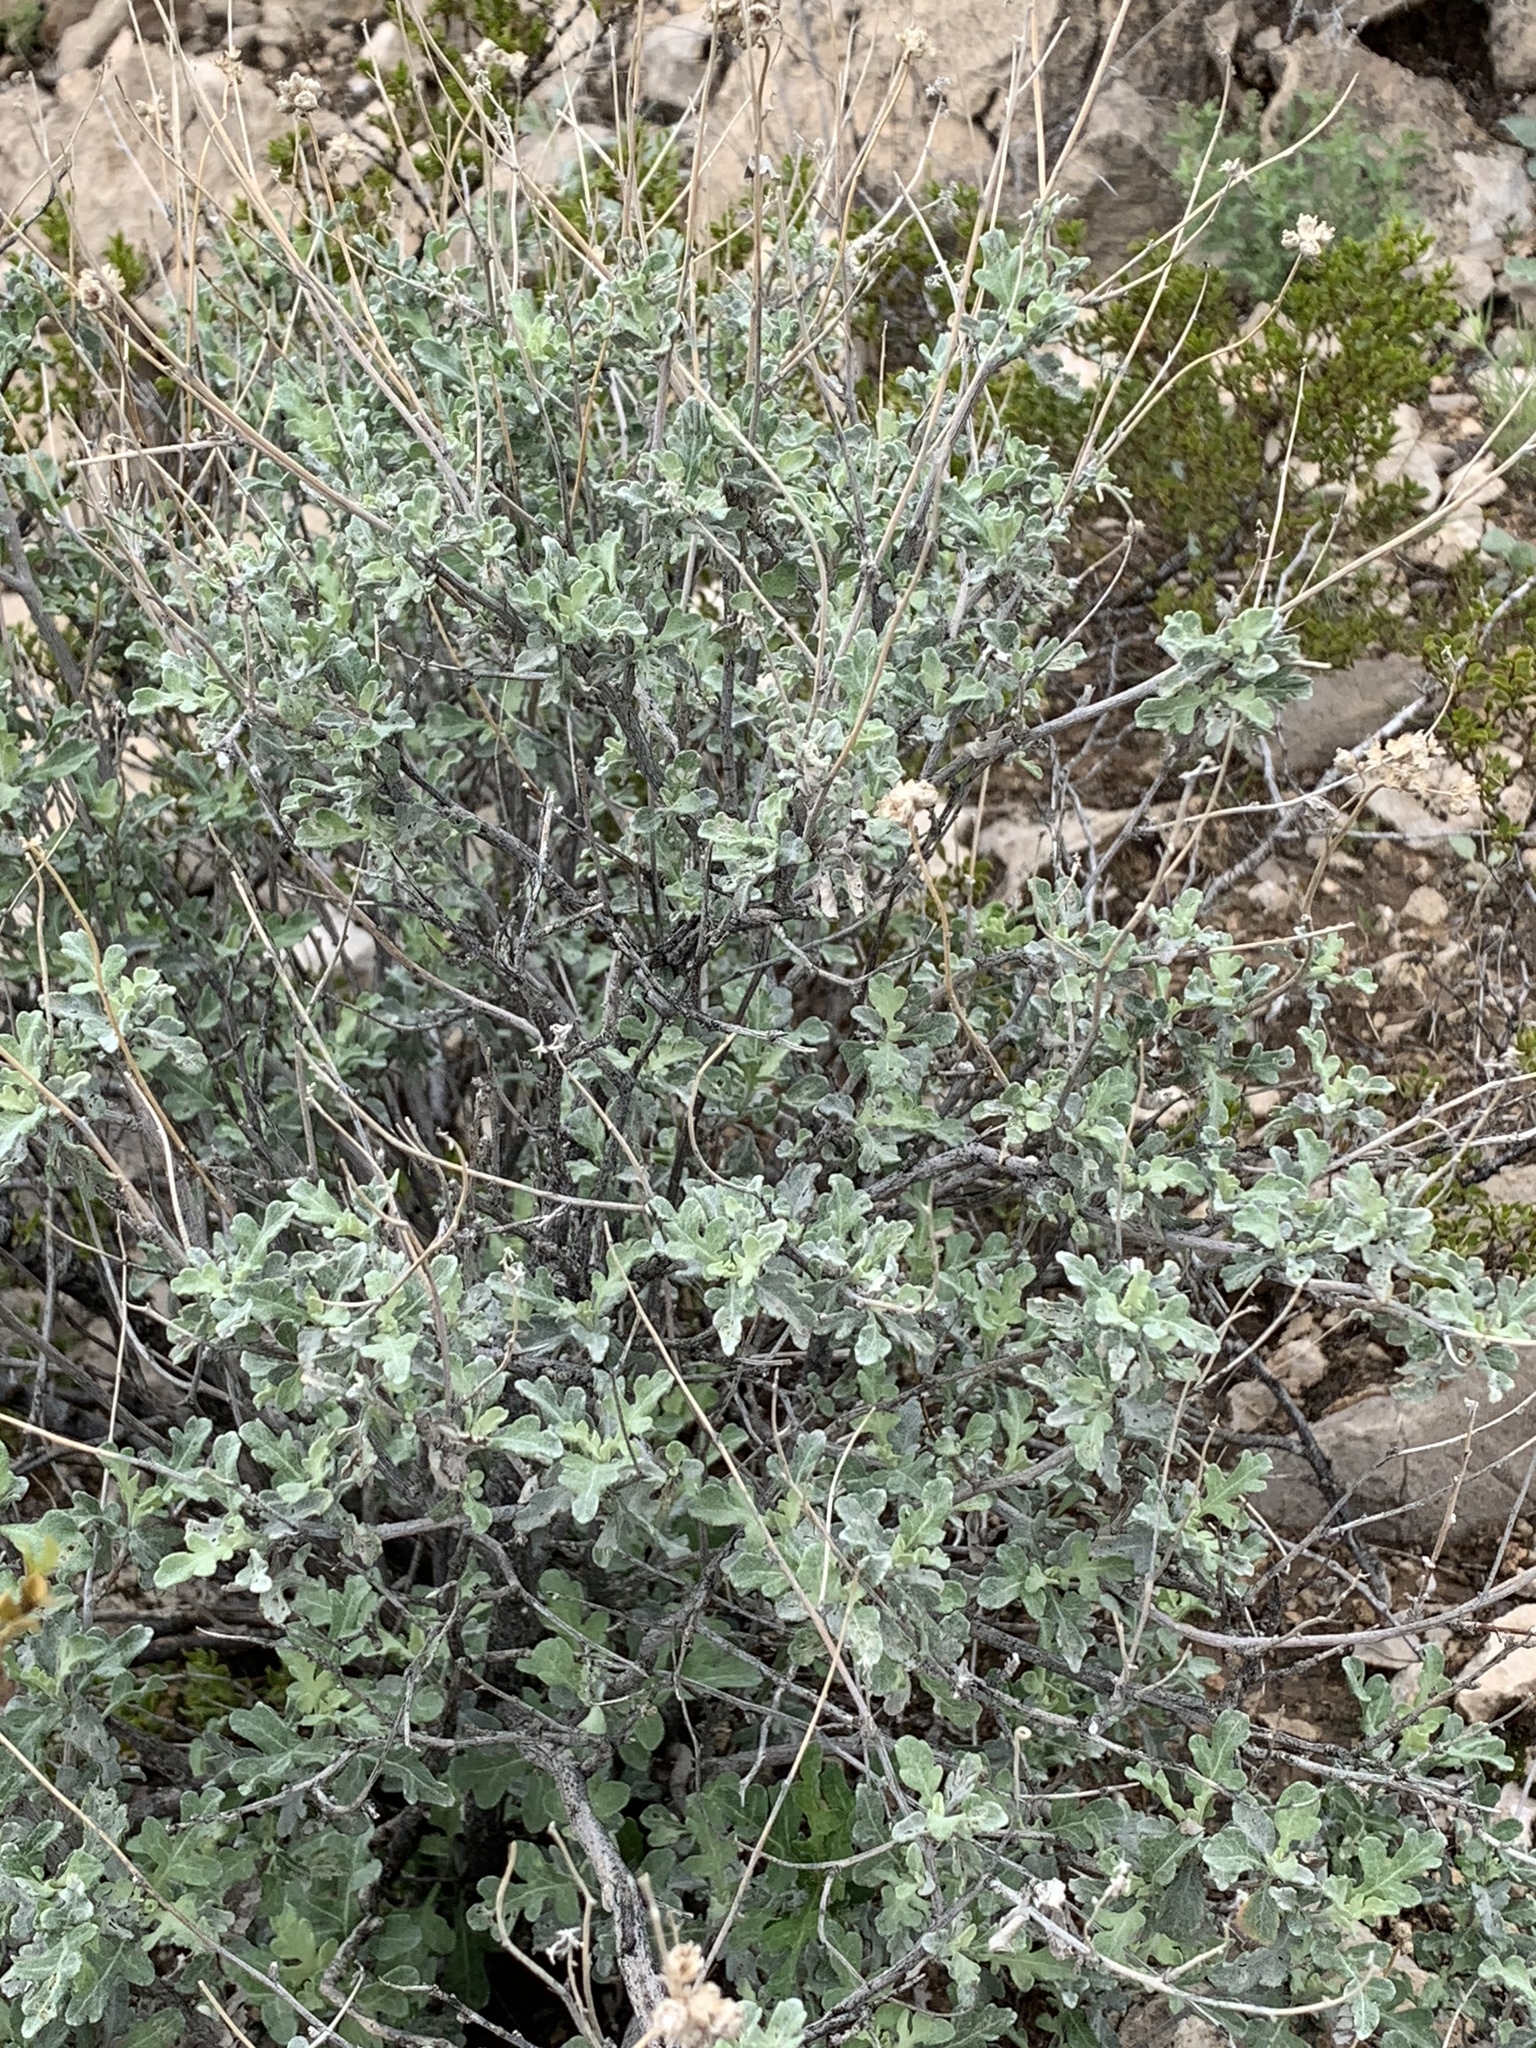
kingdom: Plantae
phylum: Tracheophyta
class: Magnoliopsida
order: Asterales
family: Asteraceae
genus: Parthenium
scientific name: Parthenium incanum
